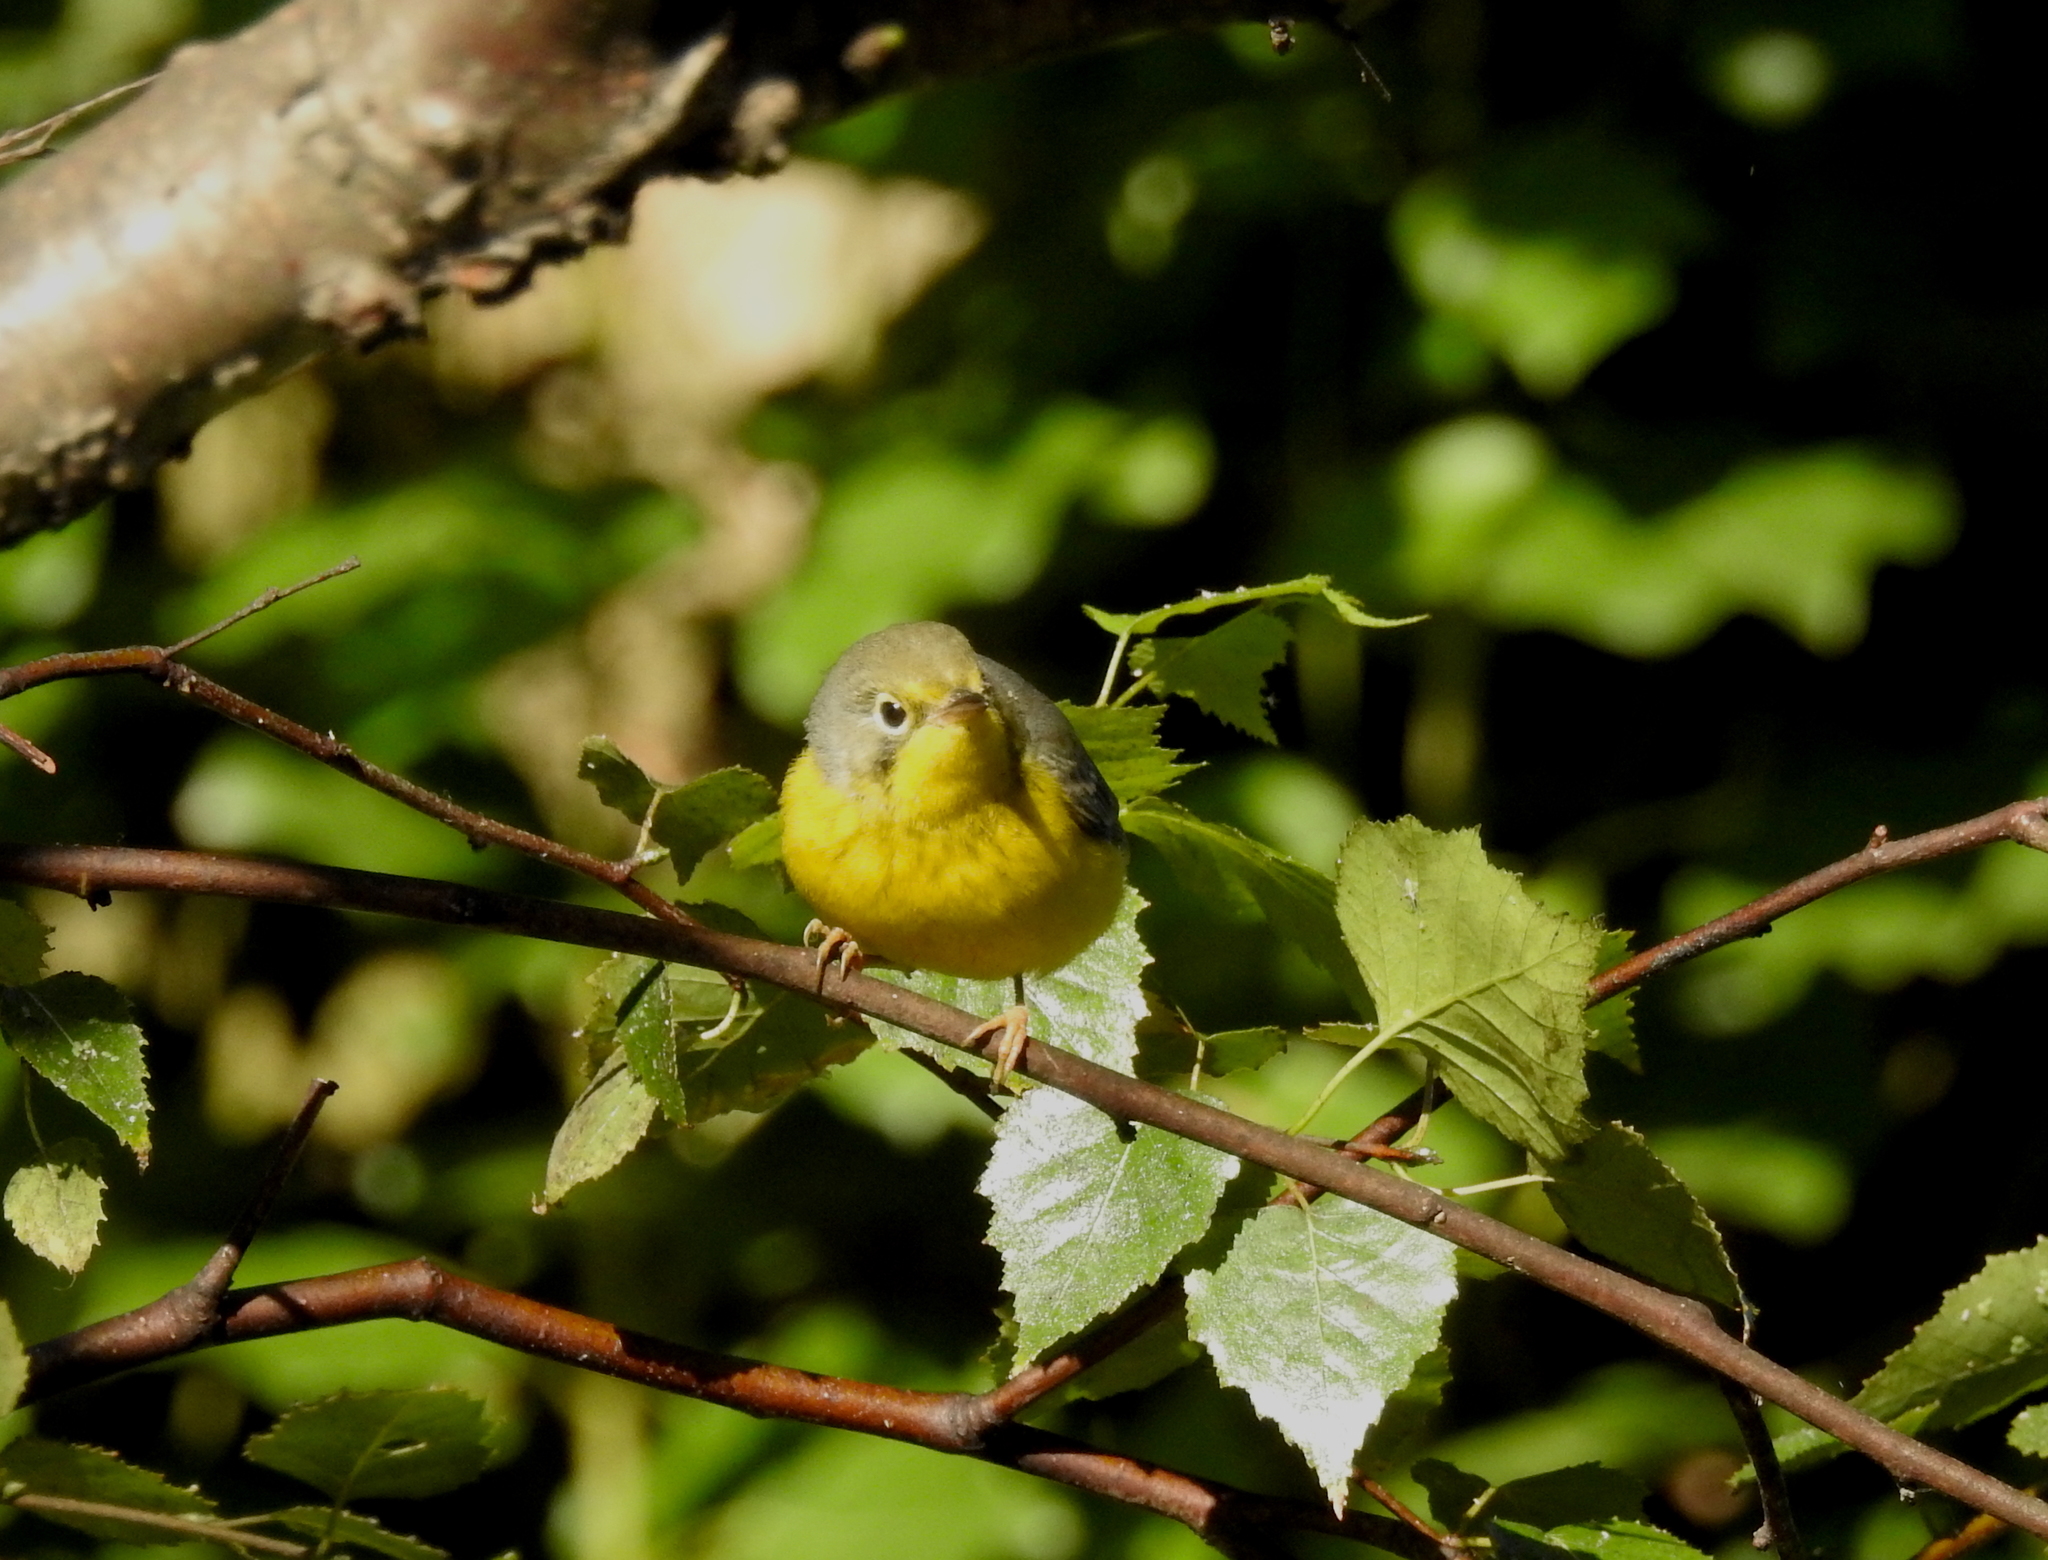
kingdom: Animalia
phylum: Chordata
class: Aves
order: Passeriformes
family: Parulidae
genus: Cardellina
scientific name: Cardellina canadensis
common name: Canada warbler
